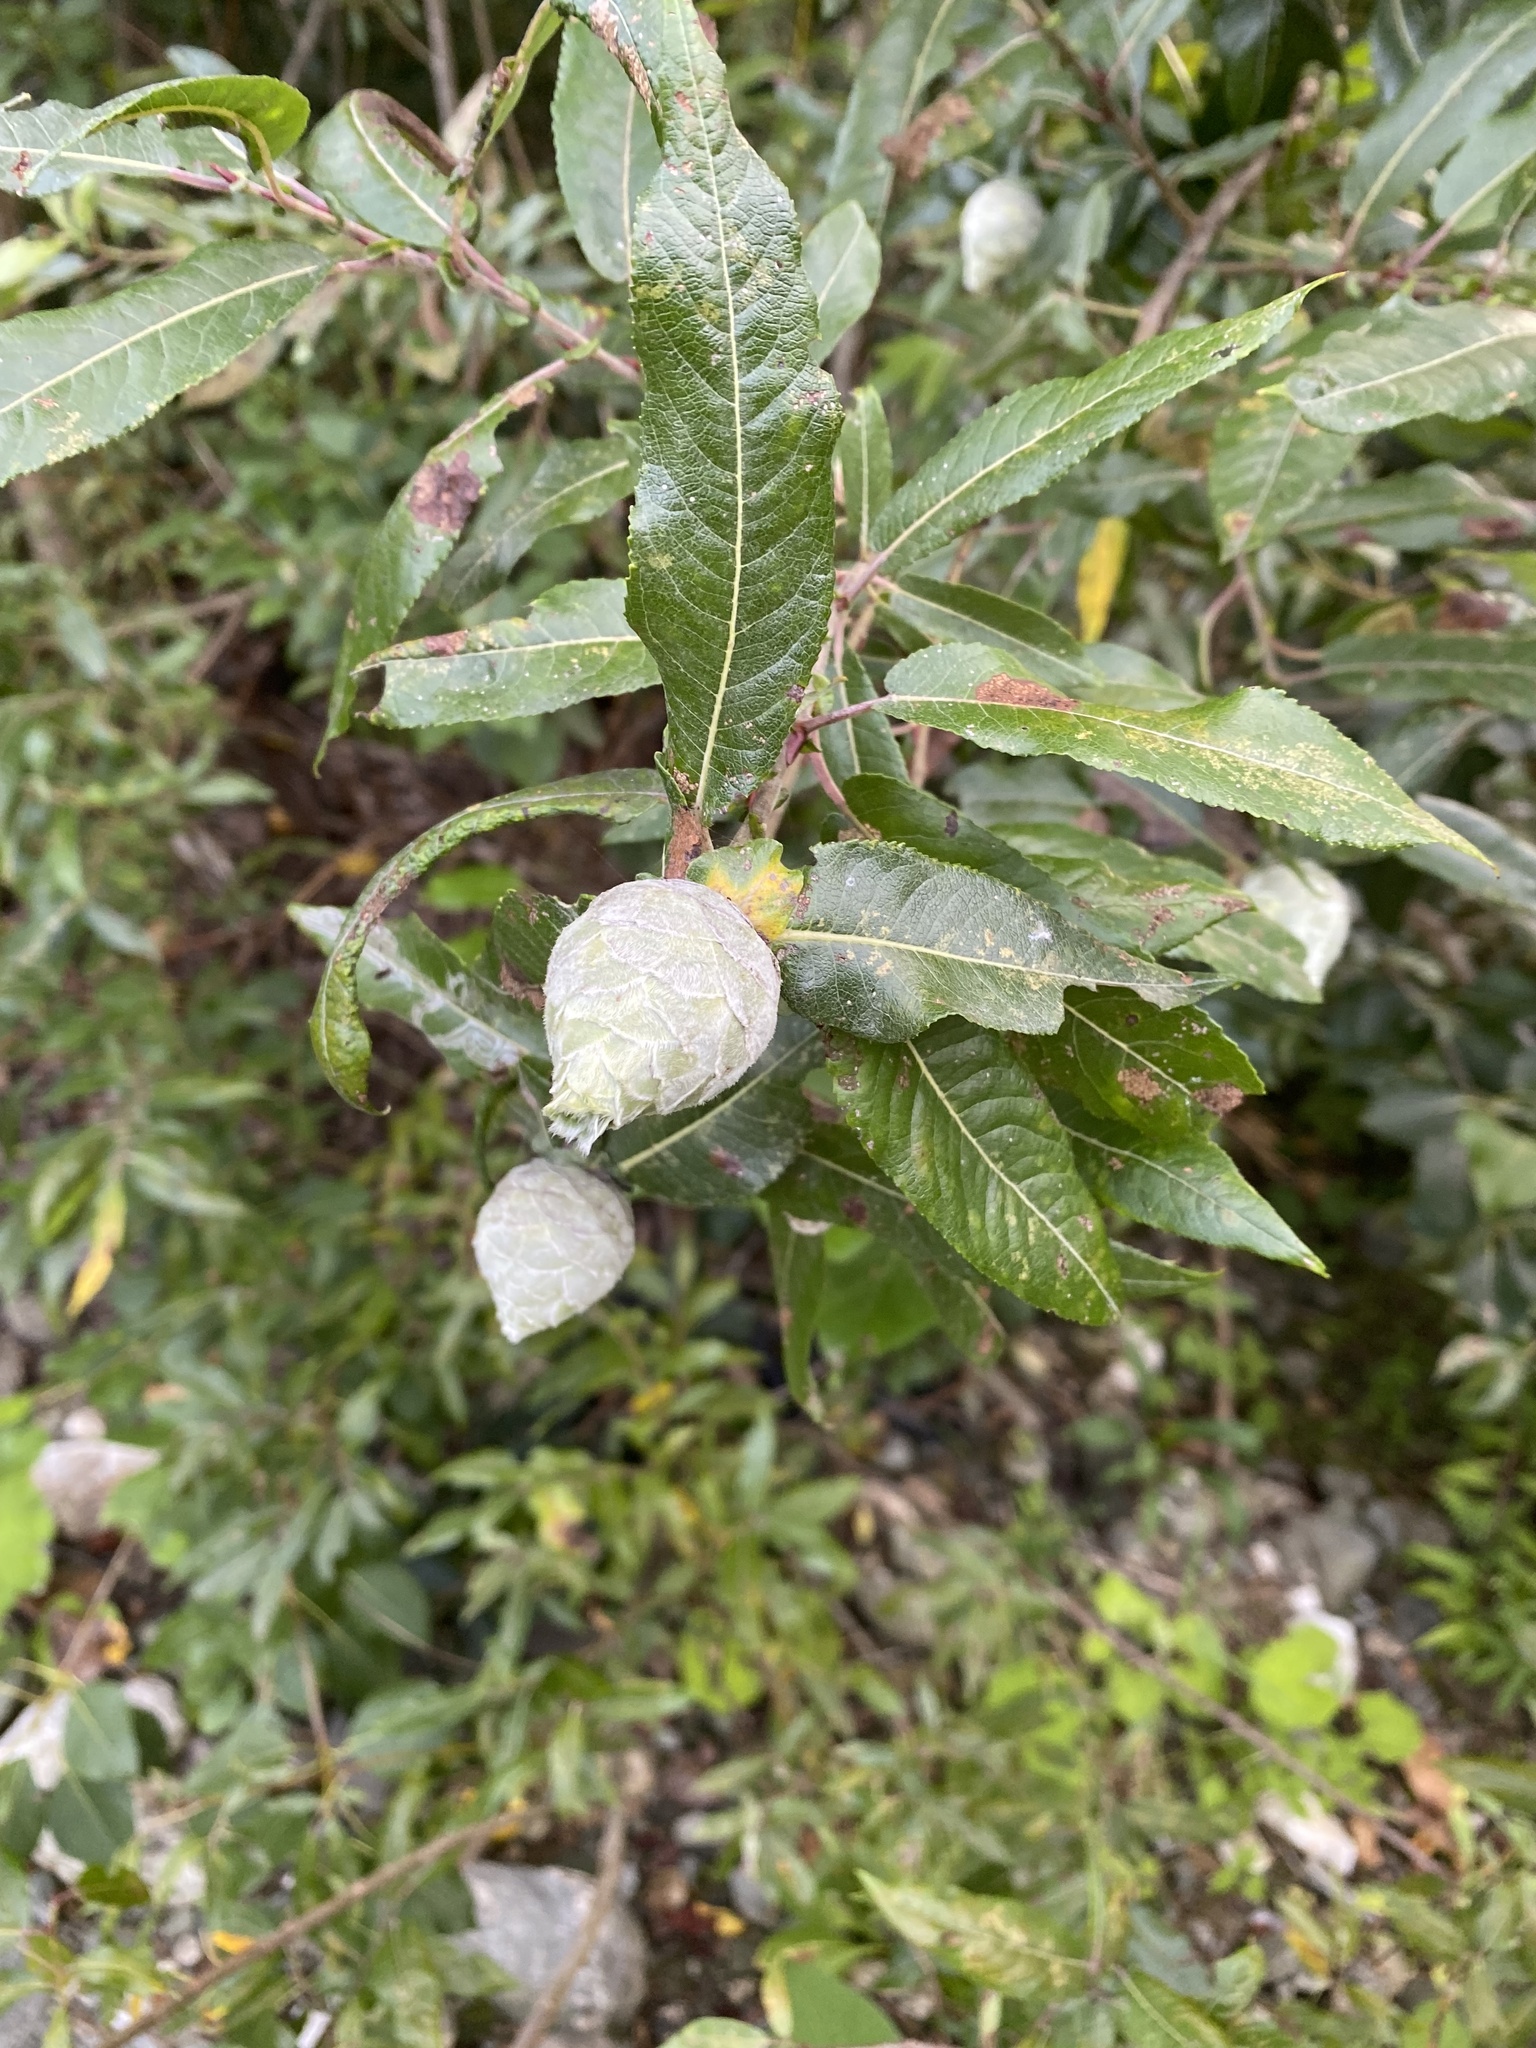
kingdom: Animalia
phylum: Arthropoda
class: Insecta
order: Diptera
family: Cecidomyiidae
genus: Rabdophaga
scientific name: Rabdophaga strobiloides
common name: Willow pinecone gall midge
